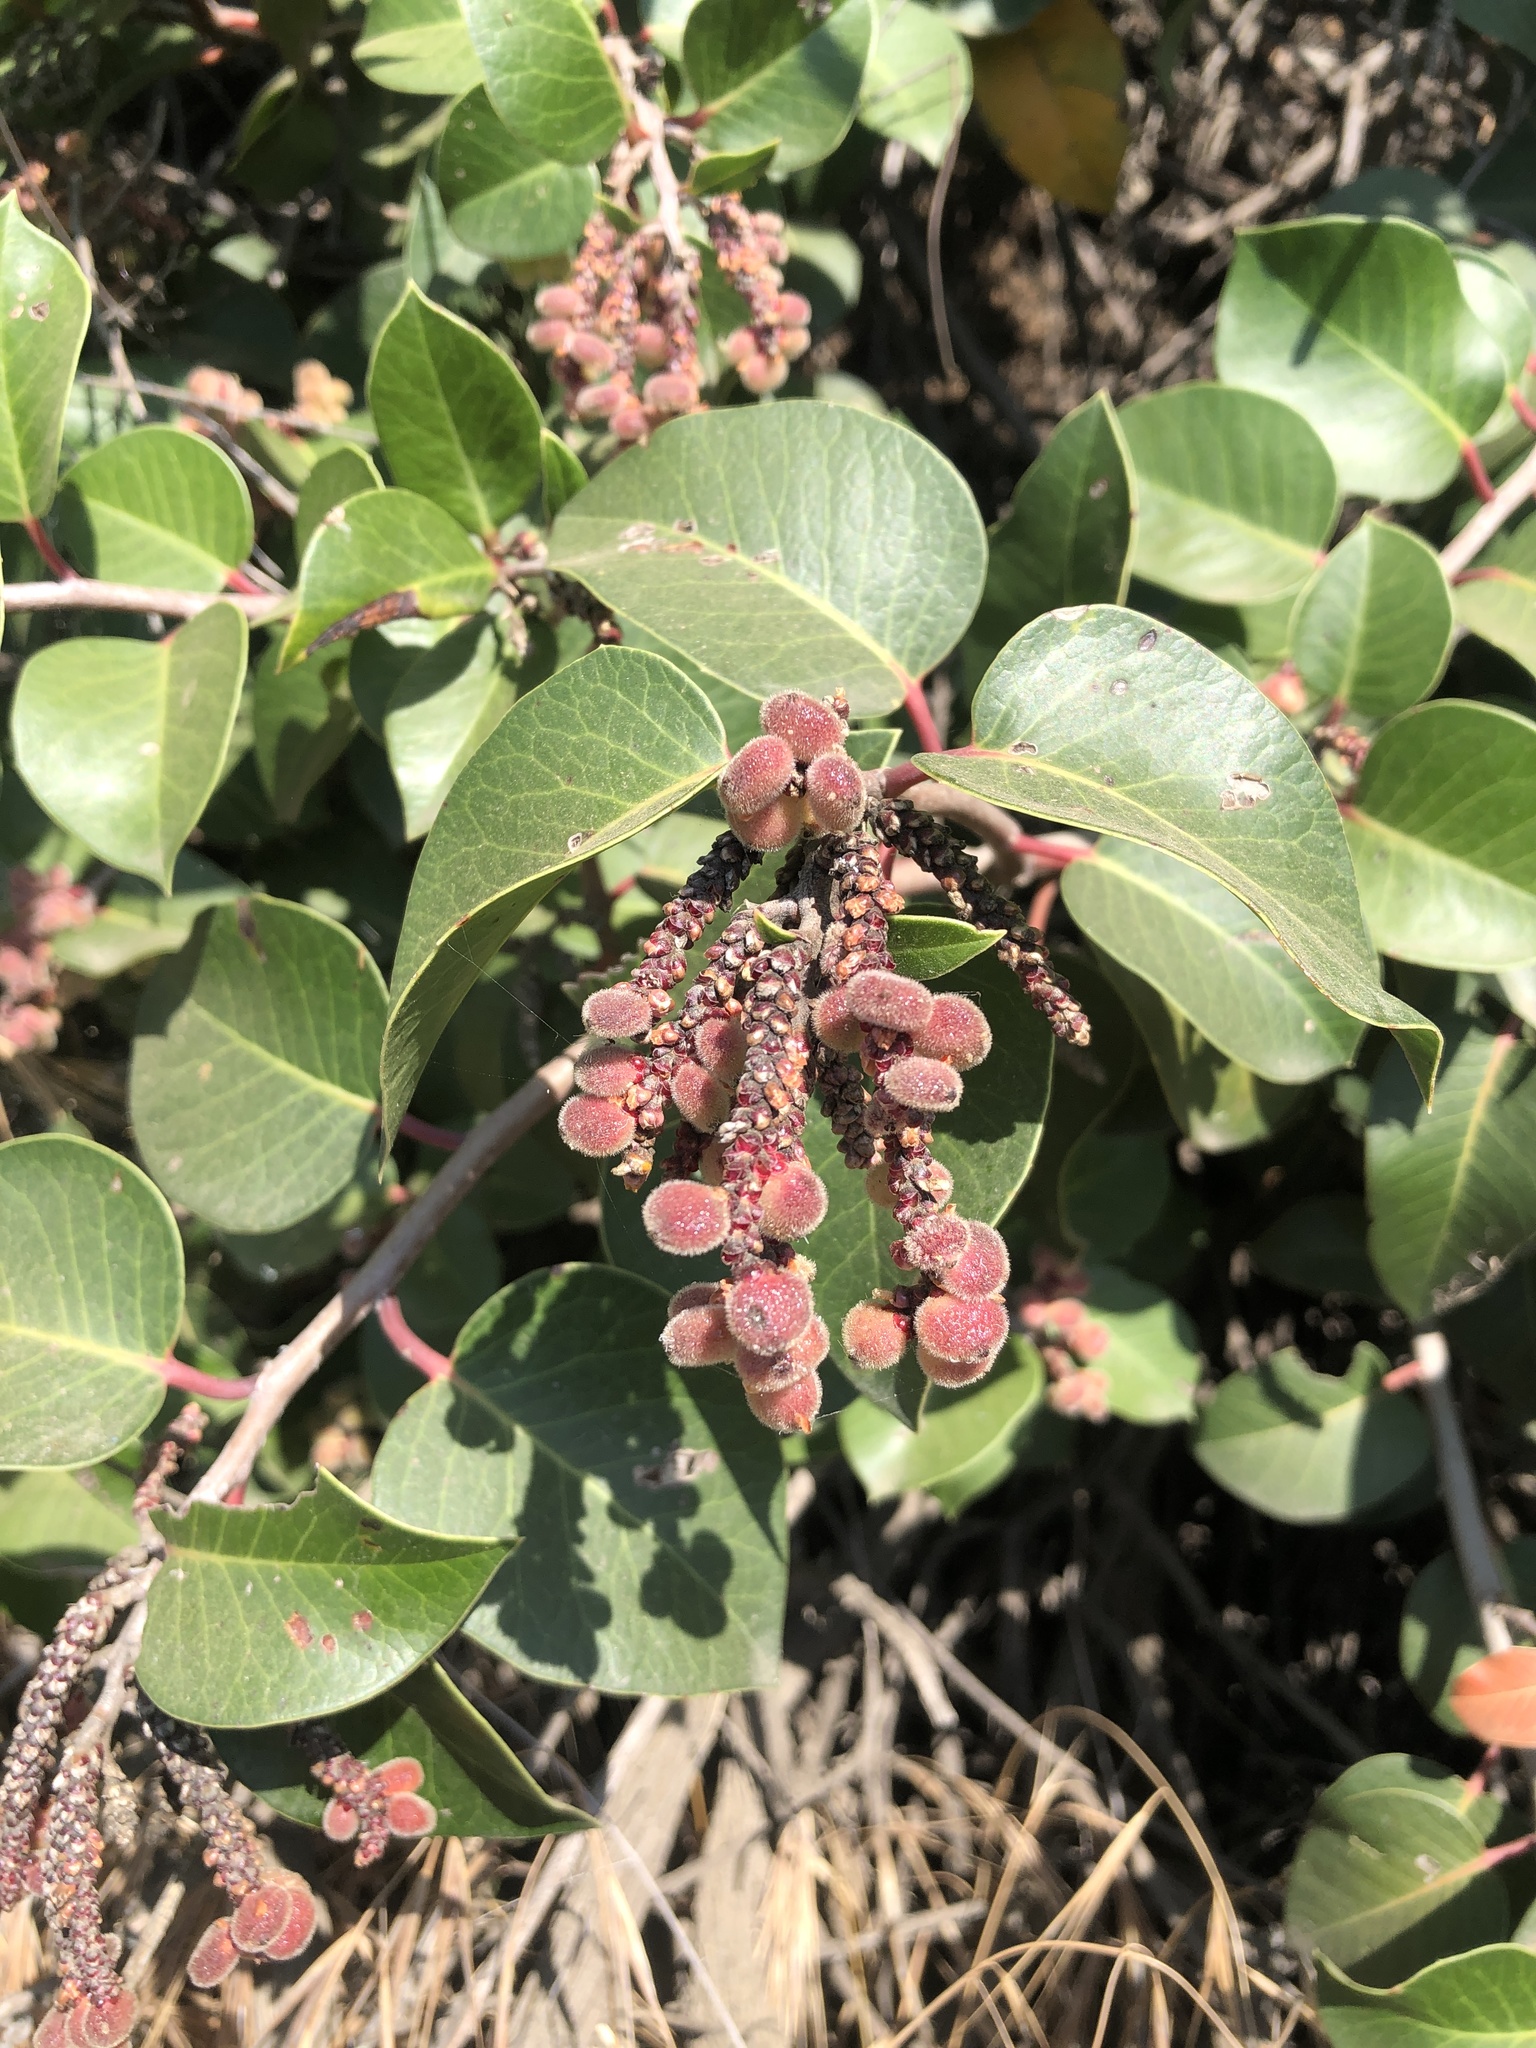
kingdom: Plantae
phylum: Tracheophyta
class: Magnoliopsida
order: Sapindales
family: Anacardiaceae
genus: Rhus
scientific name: Rhus ovata
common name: Sugar sumac
